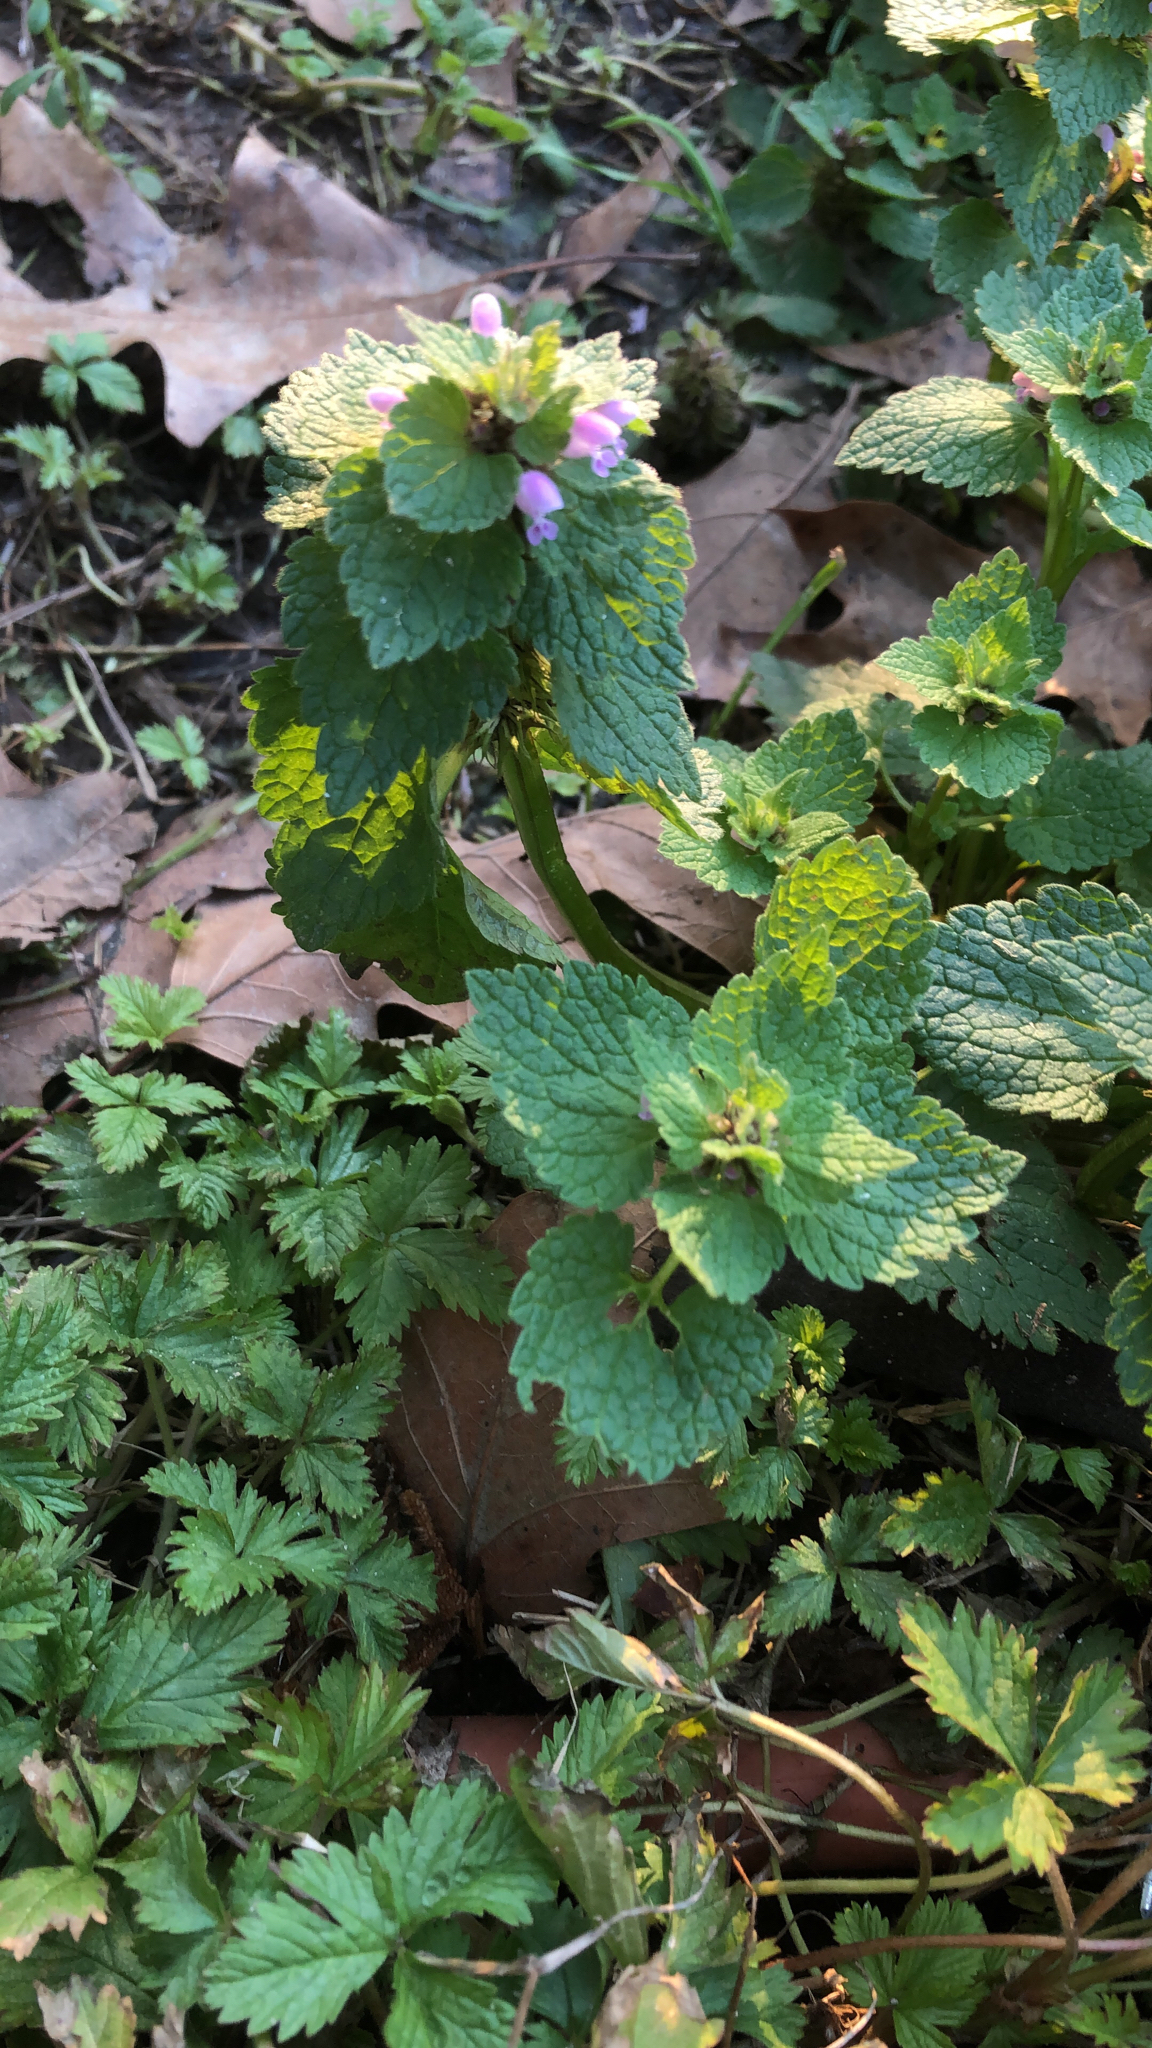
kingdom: Plantae
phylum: Tracheophyta
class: Magnoliopsida
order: Lamiales
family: Lamiaceae
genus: Lamium
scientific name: Lamium purpureum
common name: Red dead-nettle
